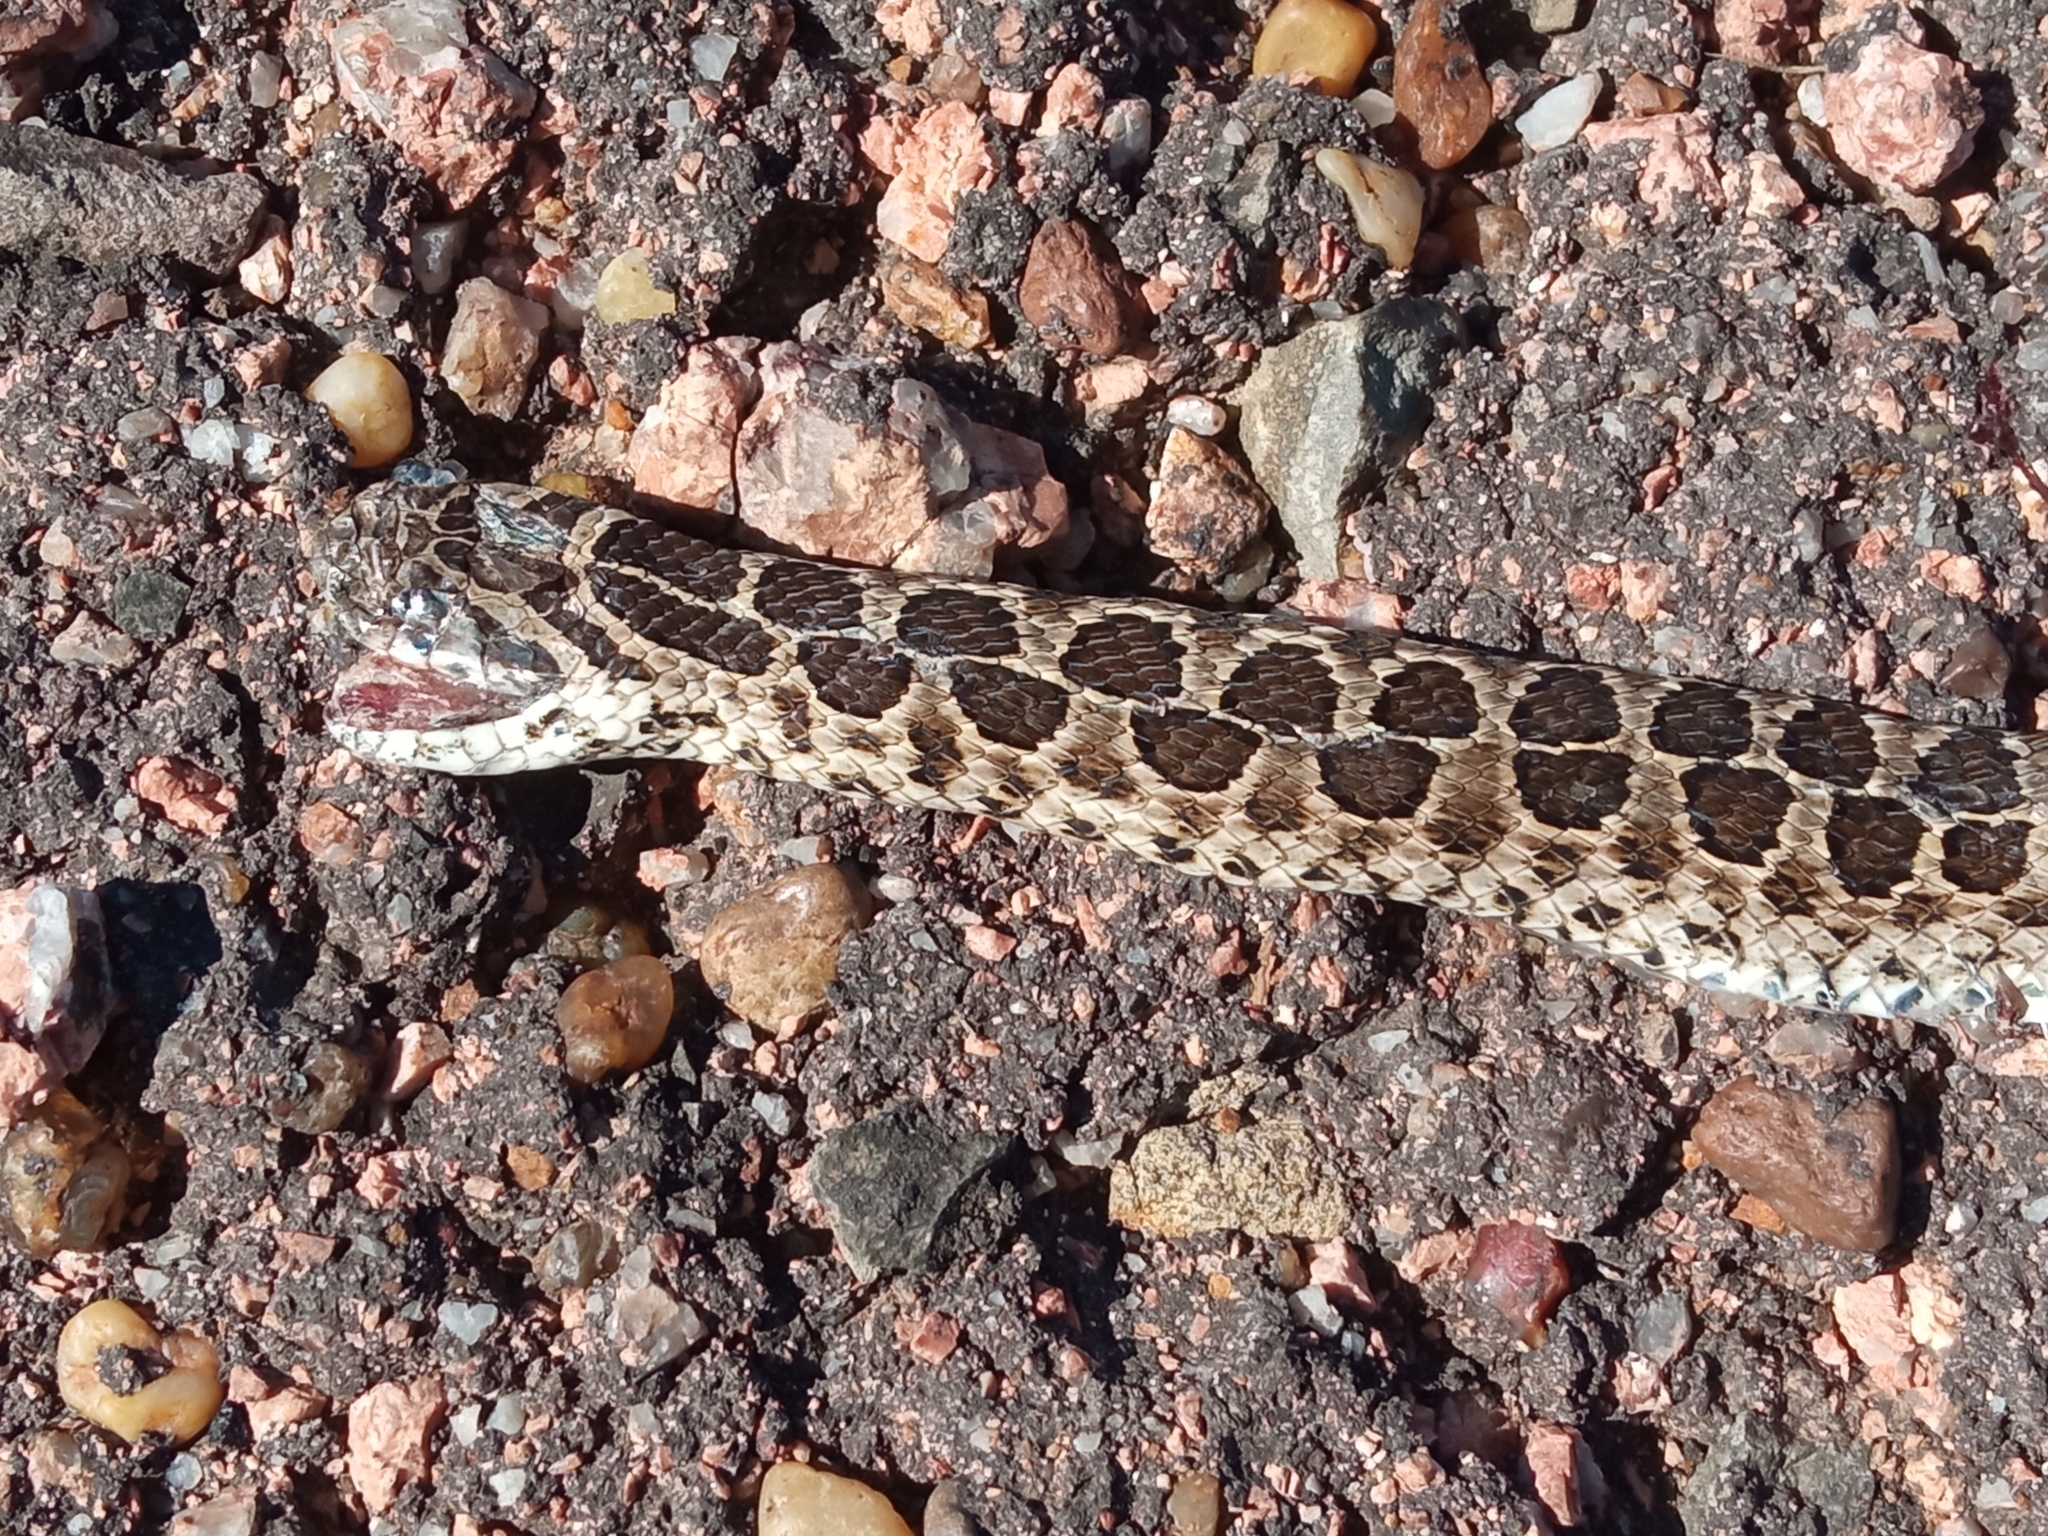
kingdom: Animalia
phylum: Chordata
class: Squamata
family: Colubridae
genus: Tachymenis
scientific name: Tachymenis
